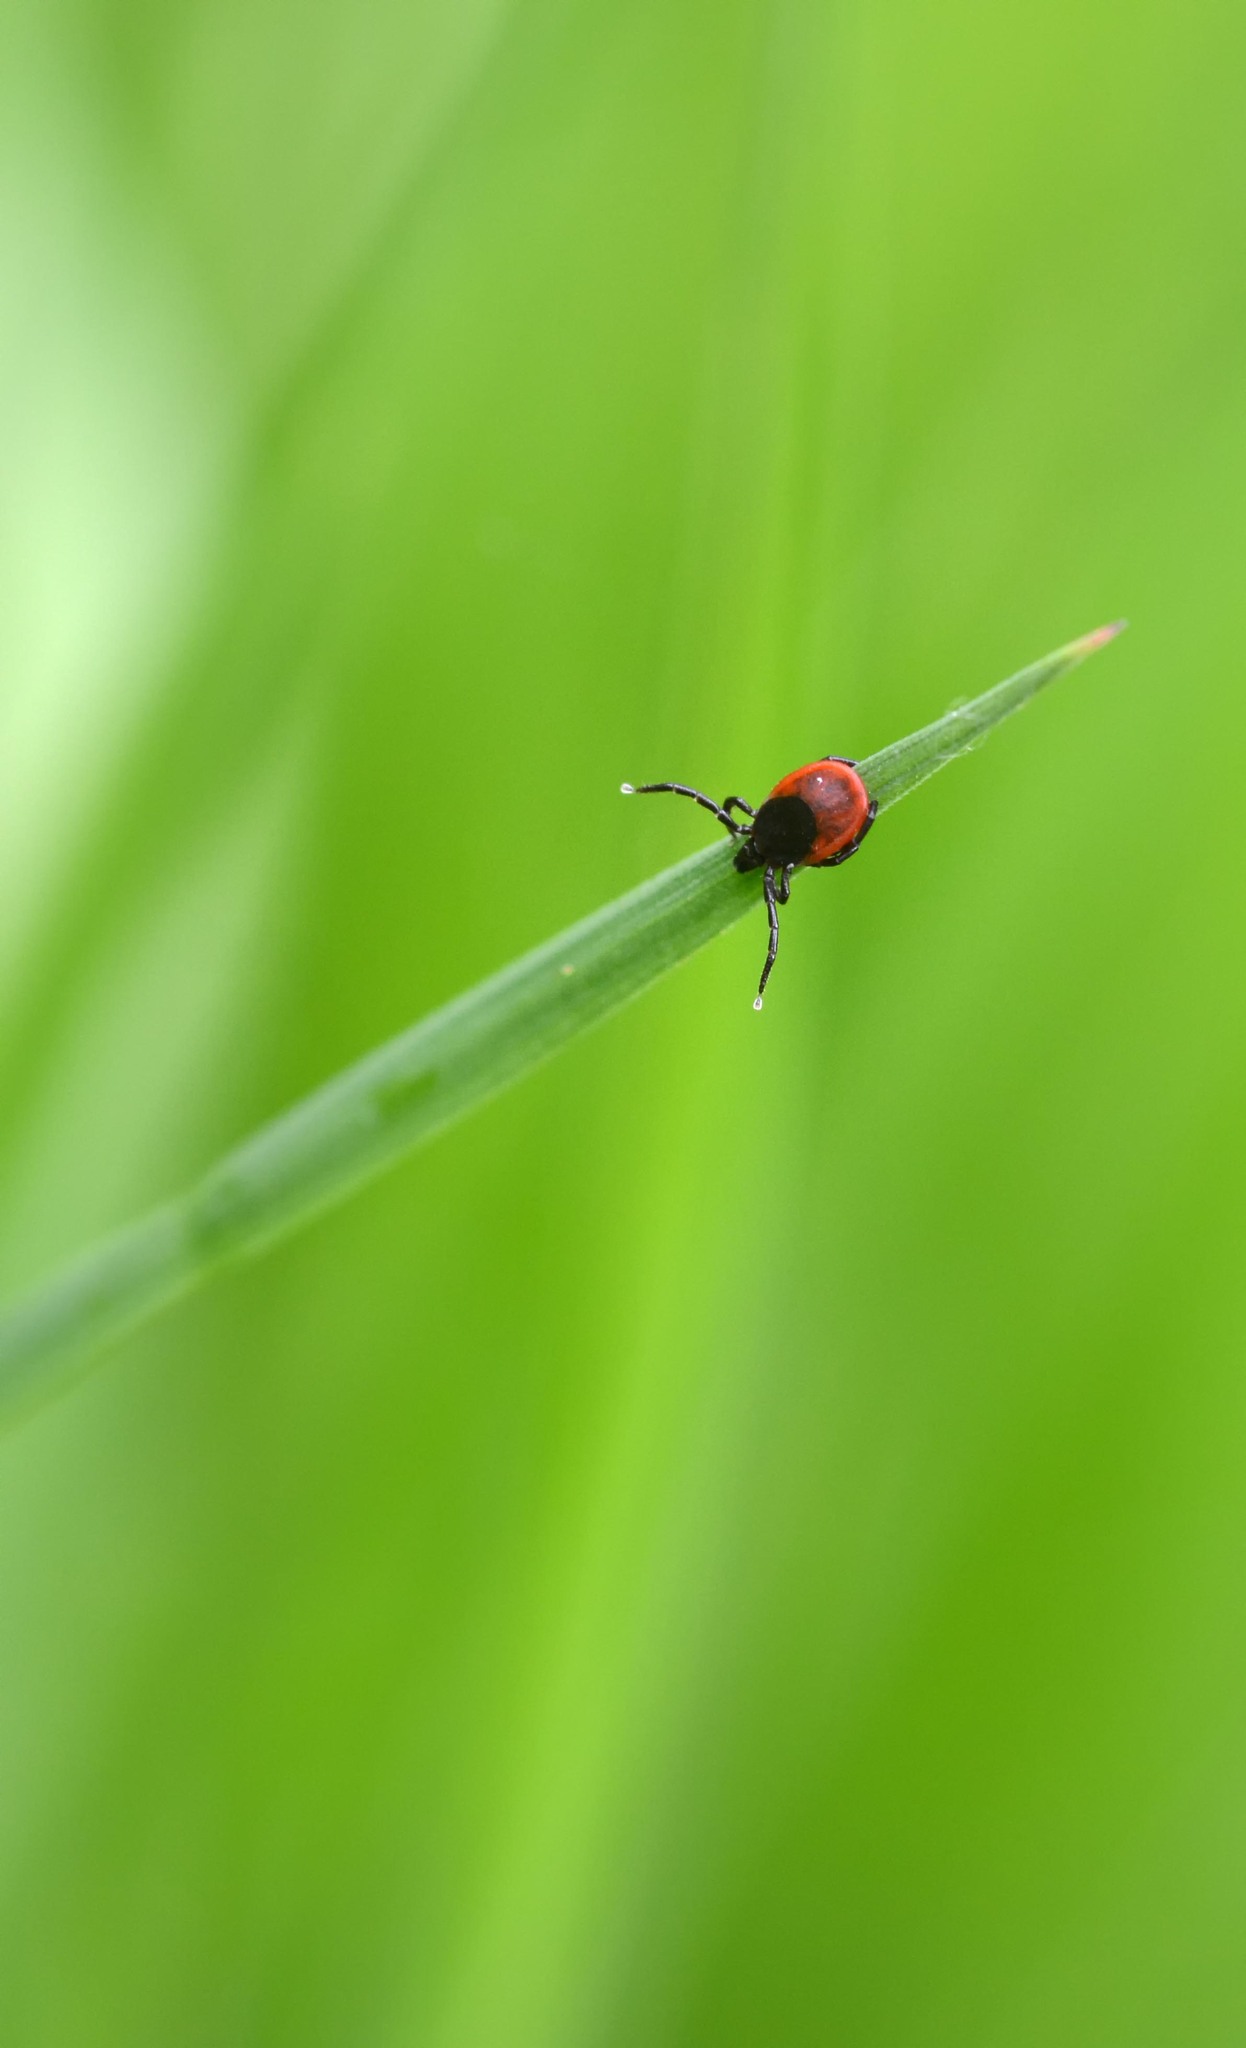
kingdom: Animalia
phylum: Arthropoda
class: Arachnida
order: Ixodida
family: Ixodidae
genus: Ixodes
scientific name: Ixodes ricinus
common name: Castor bean tick
